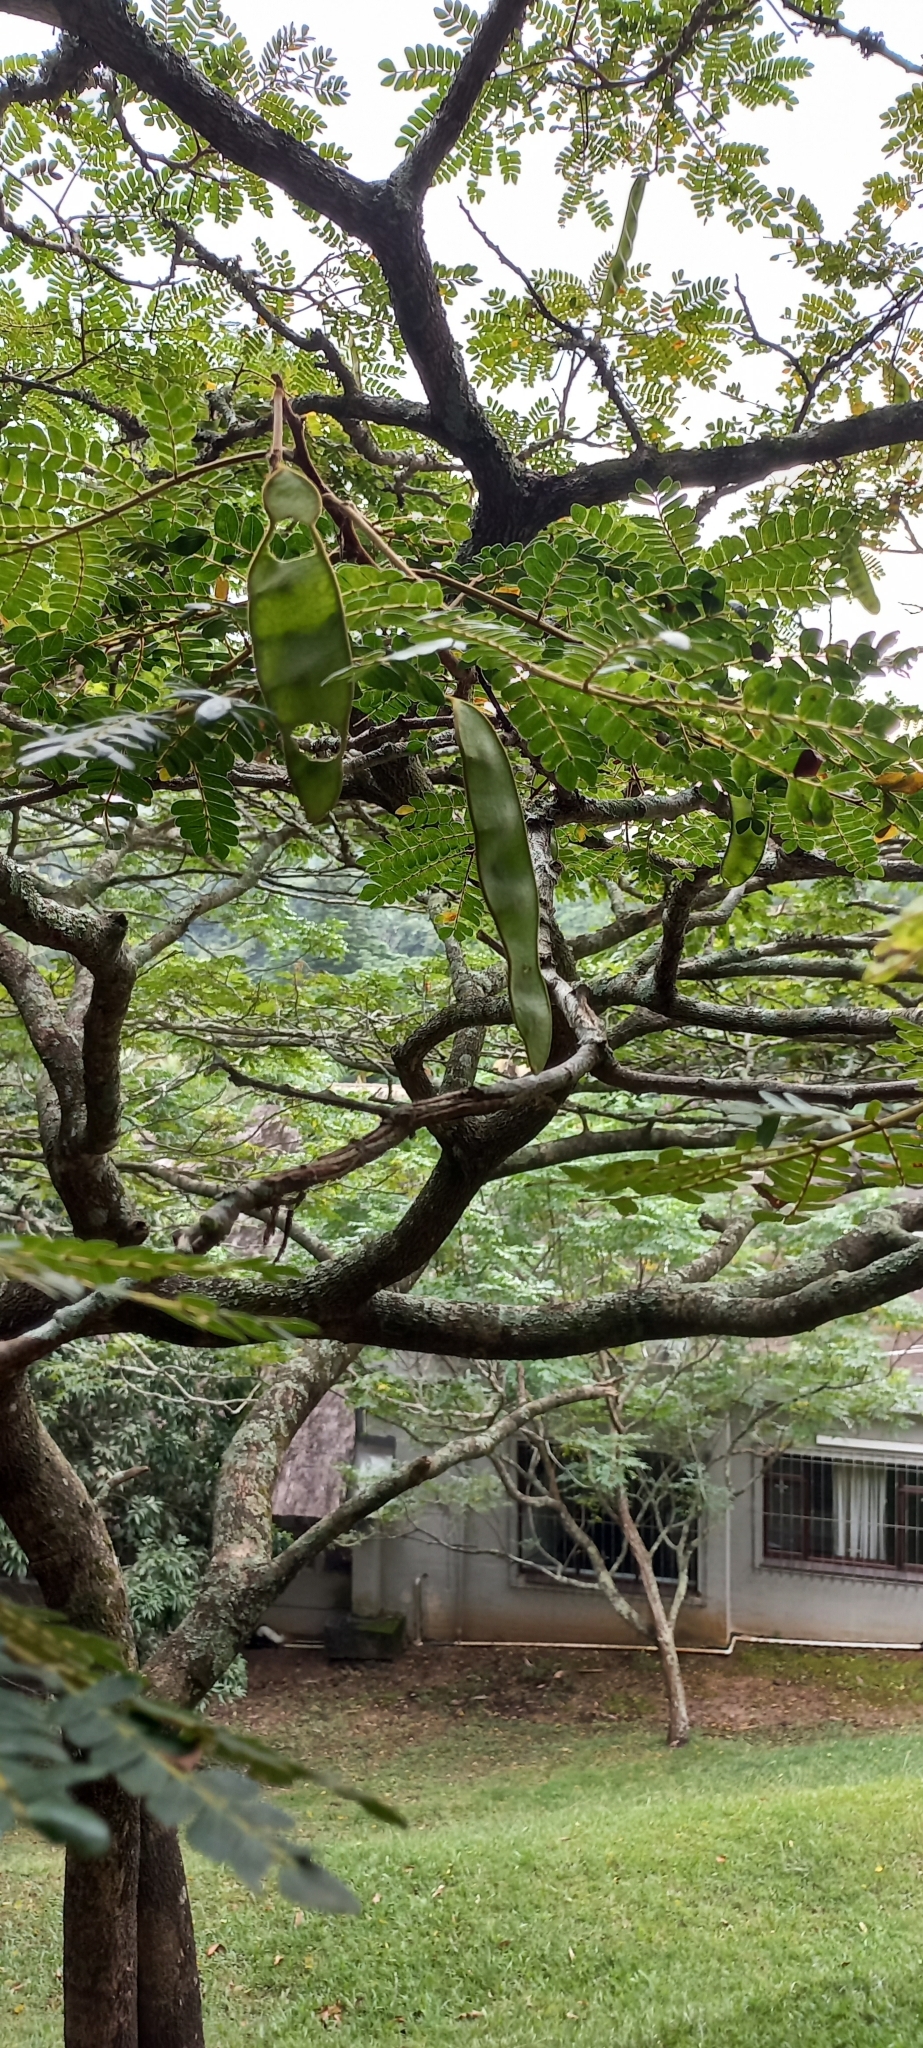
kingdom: Plantae
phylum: Tracheophyta
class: Magnoliopsida
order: Fabales
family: Fabaceae
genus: Albizia
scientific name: Albizia adianthifolia
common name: West african albizia
